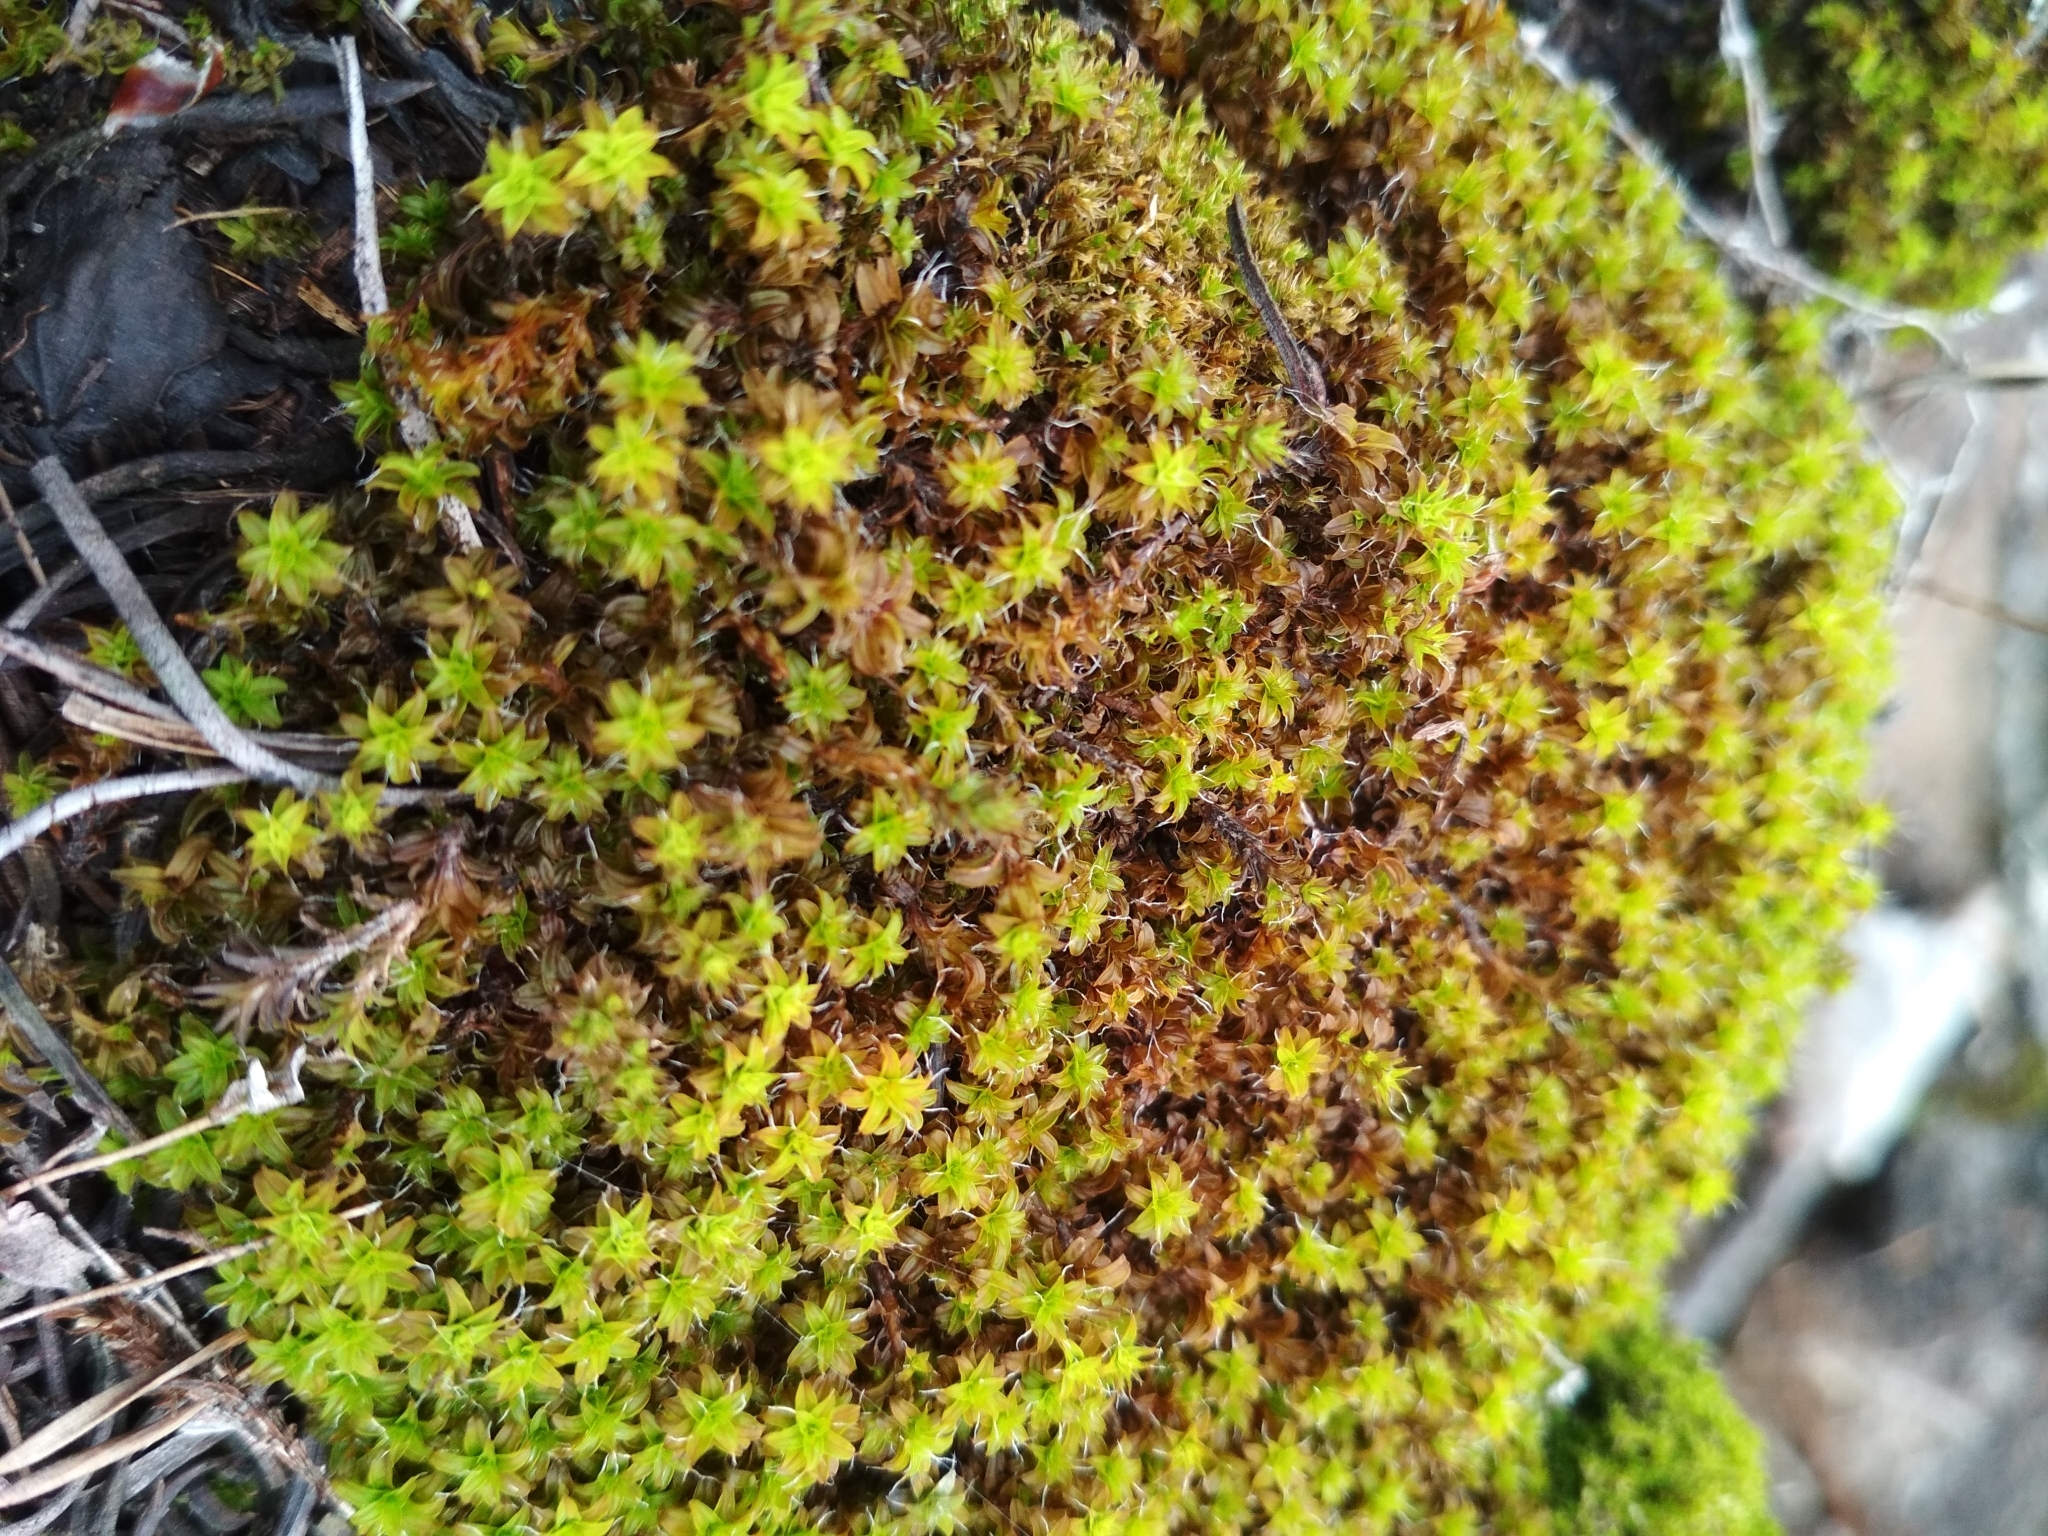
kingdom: Plantae
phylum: Bryophyta
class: Bryopsida
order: Pottiales
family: Pottiaceae
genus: Syntrichia
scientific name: Syntrichia ruralis
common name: Sidewalk screw moss
